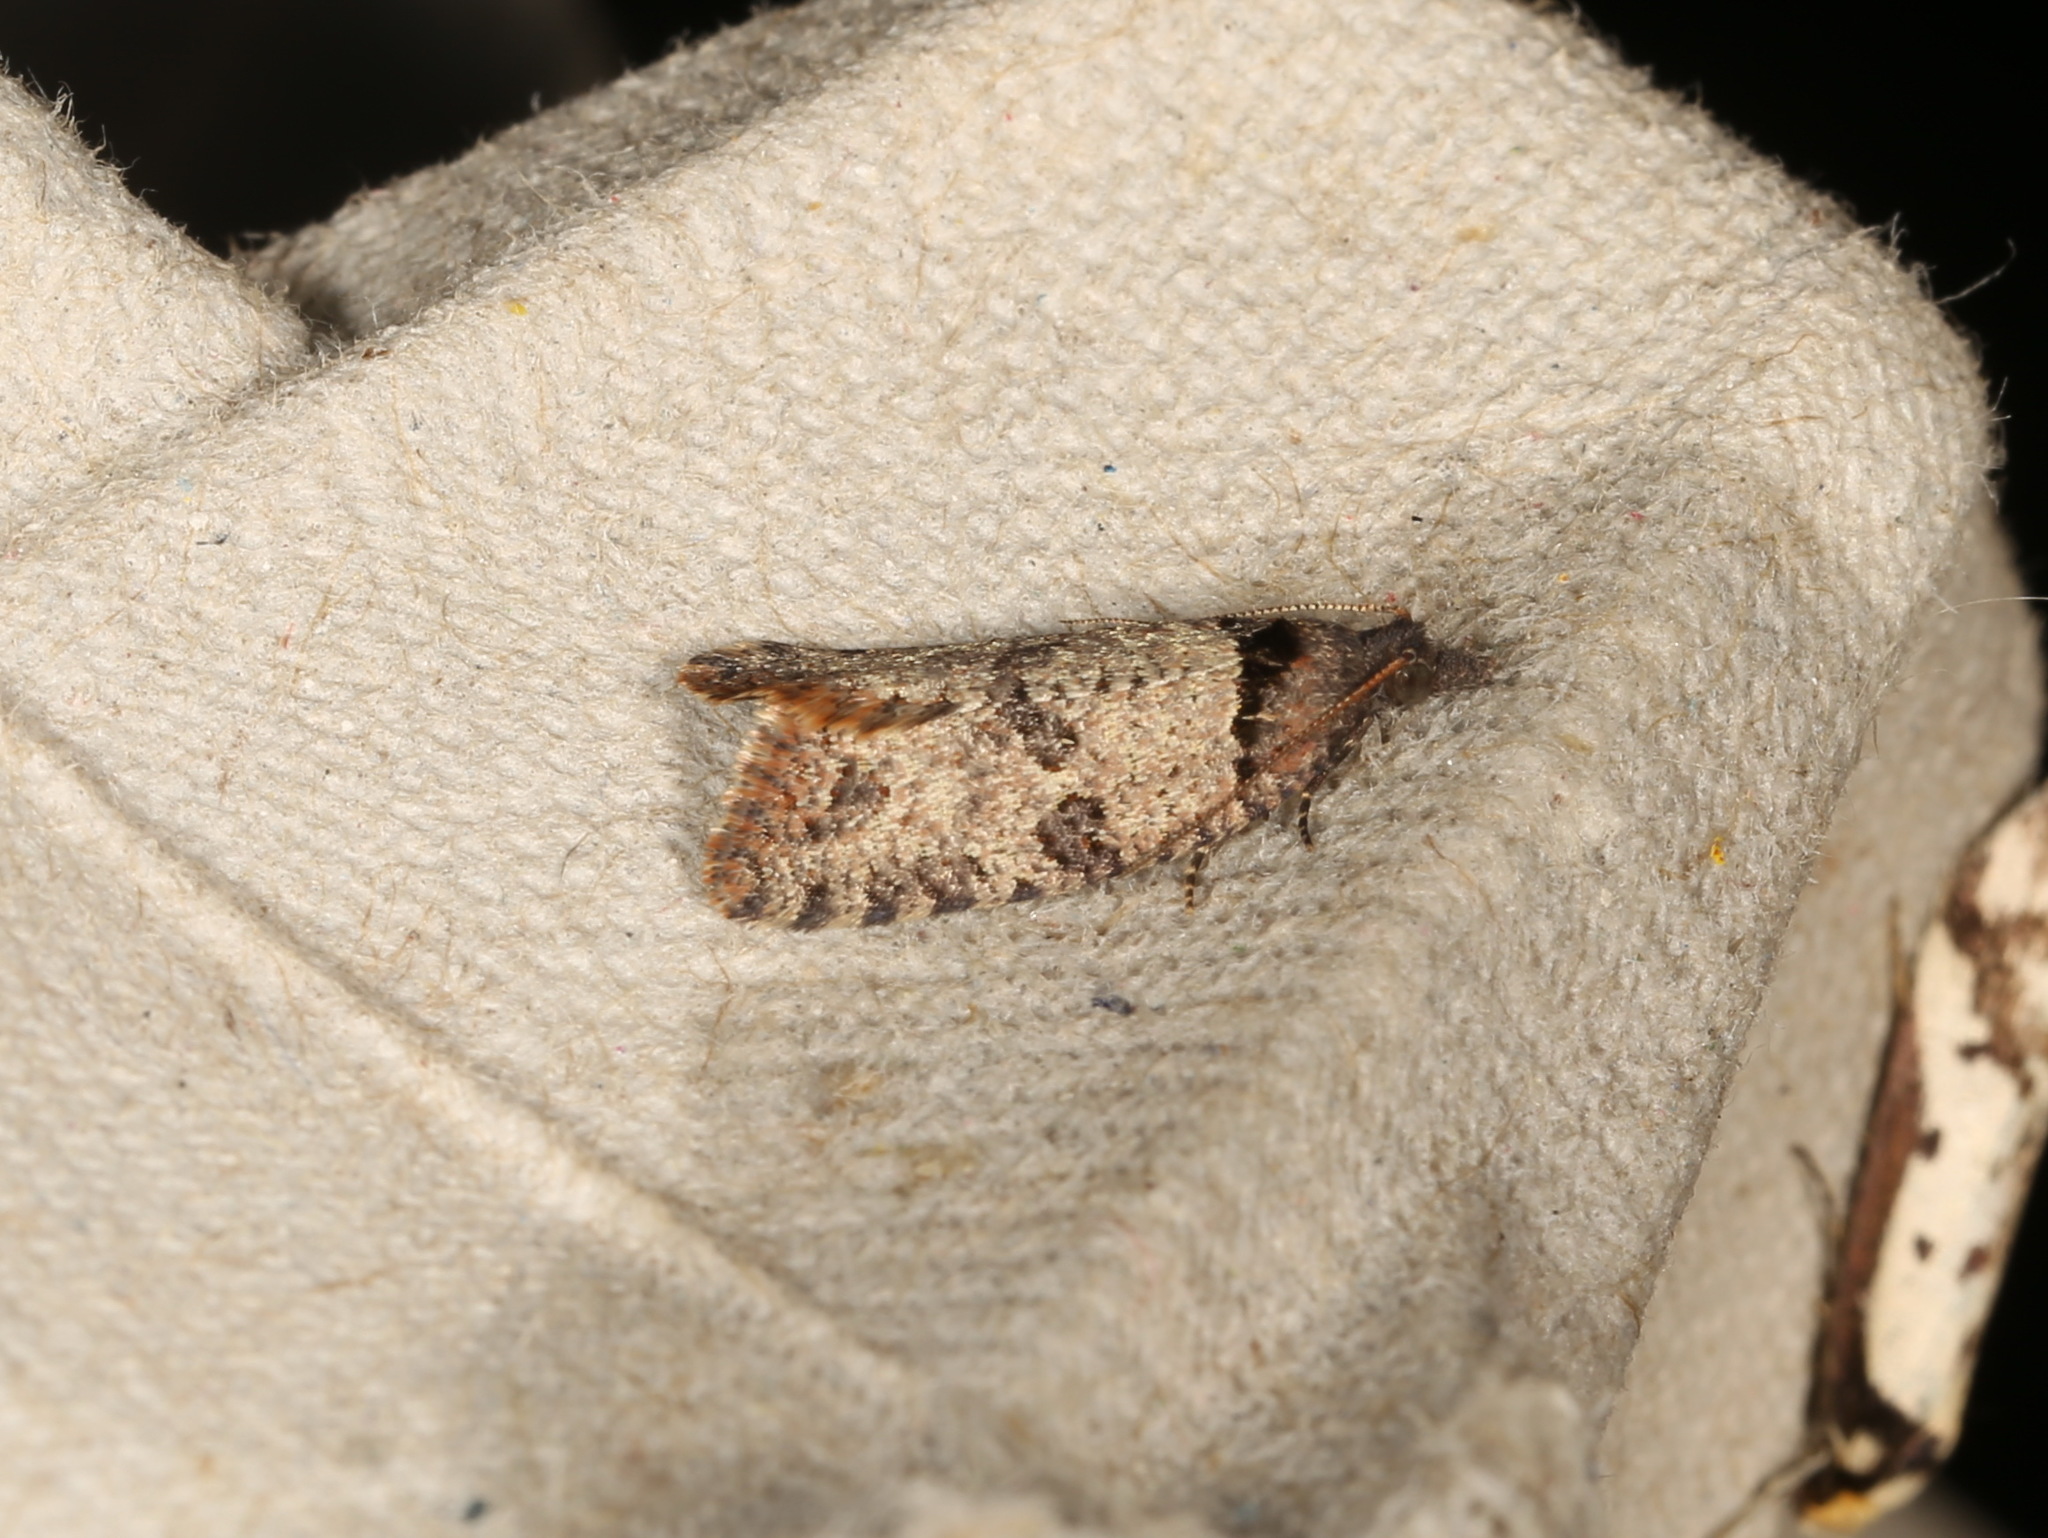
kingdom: Animalia
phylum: Arthropoda
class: Insecta
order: Lepidoptera
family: Tortricidae
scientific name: Tortricidae
